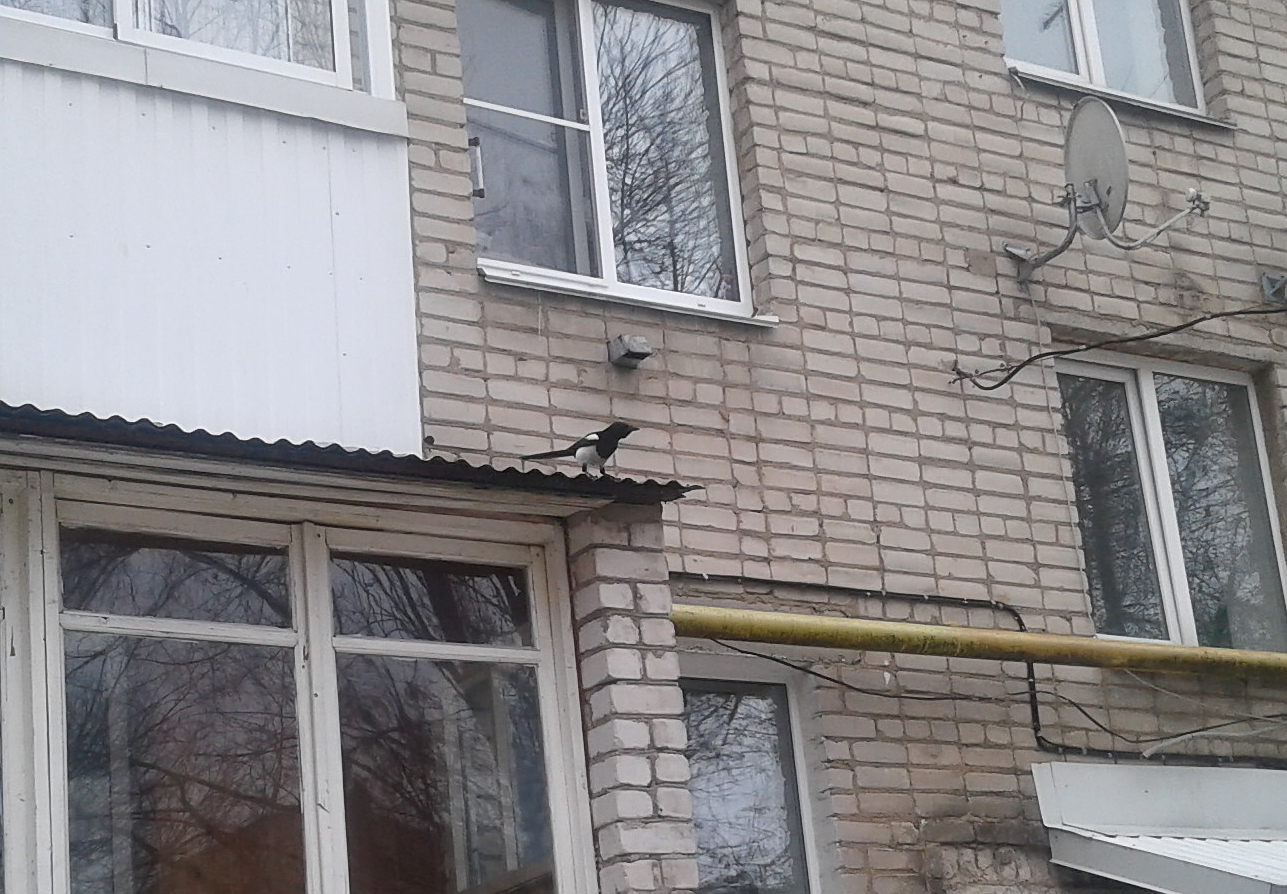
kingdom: Animalia
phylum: Chordata
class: Aves
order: Passeriformes
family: Corvidae
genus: Pica
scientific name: Pica pica
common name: Eurasian magpie
